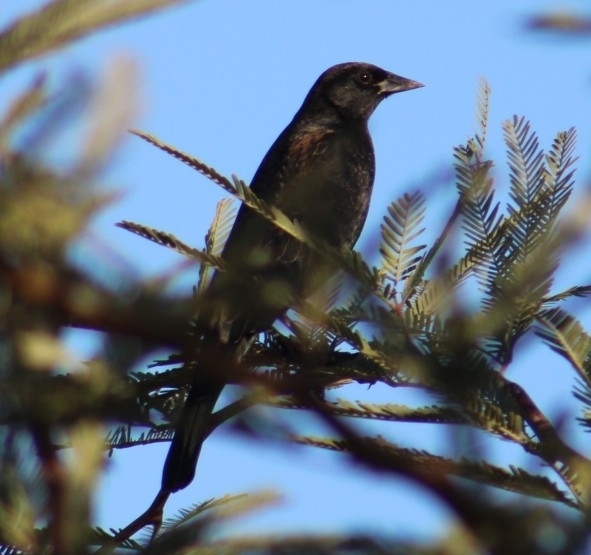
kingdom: Animalia
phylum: Chordata
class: Aves
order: Passeriformes
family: Icteridae
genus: Agelaius
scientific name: Agelaius phoeniceus
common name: Red-winged blackbird
